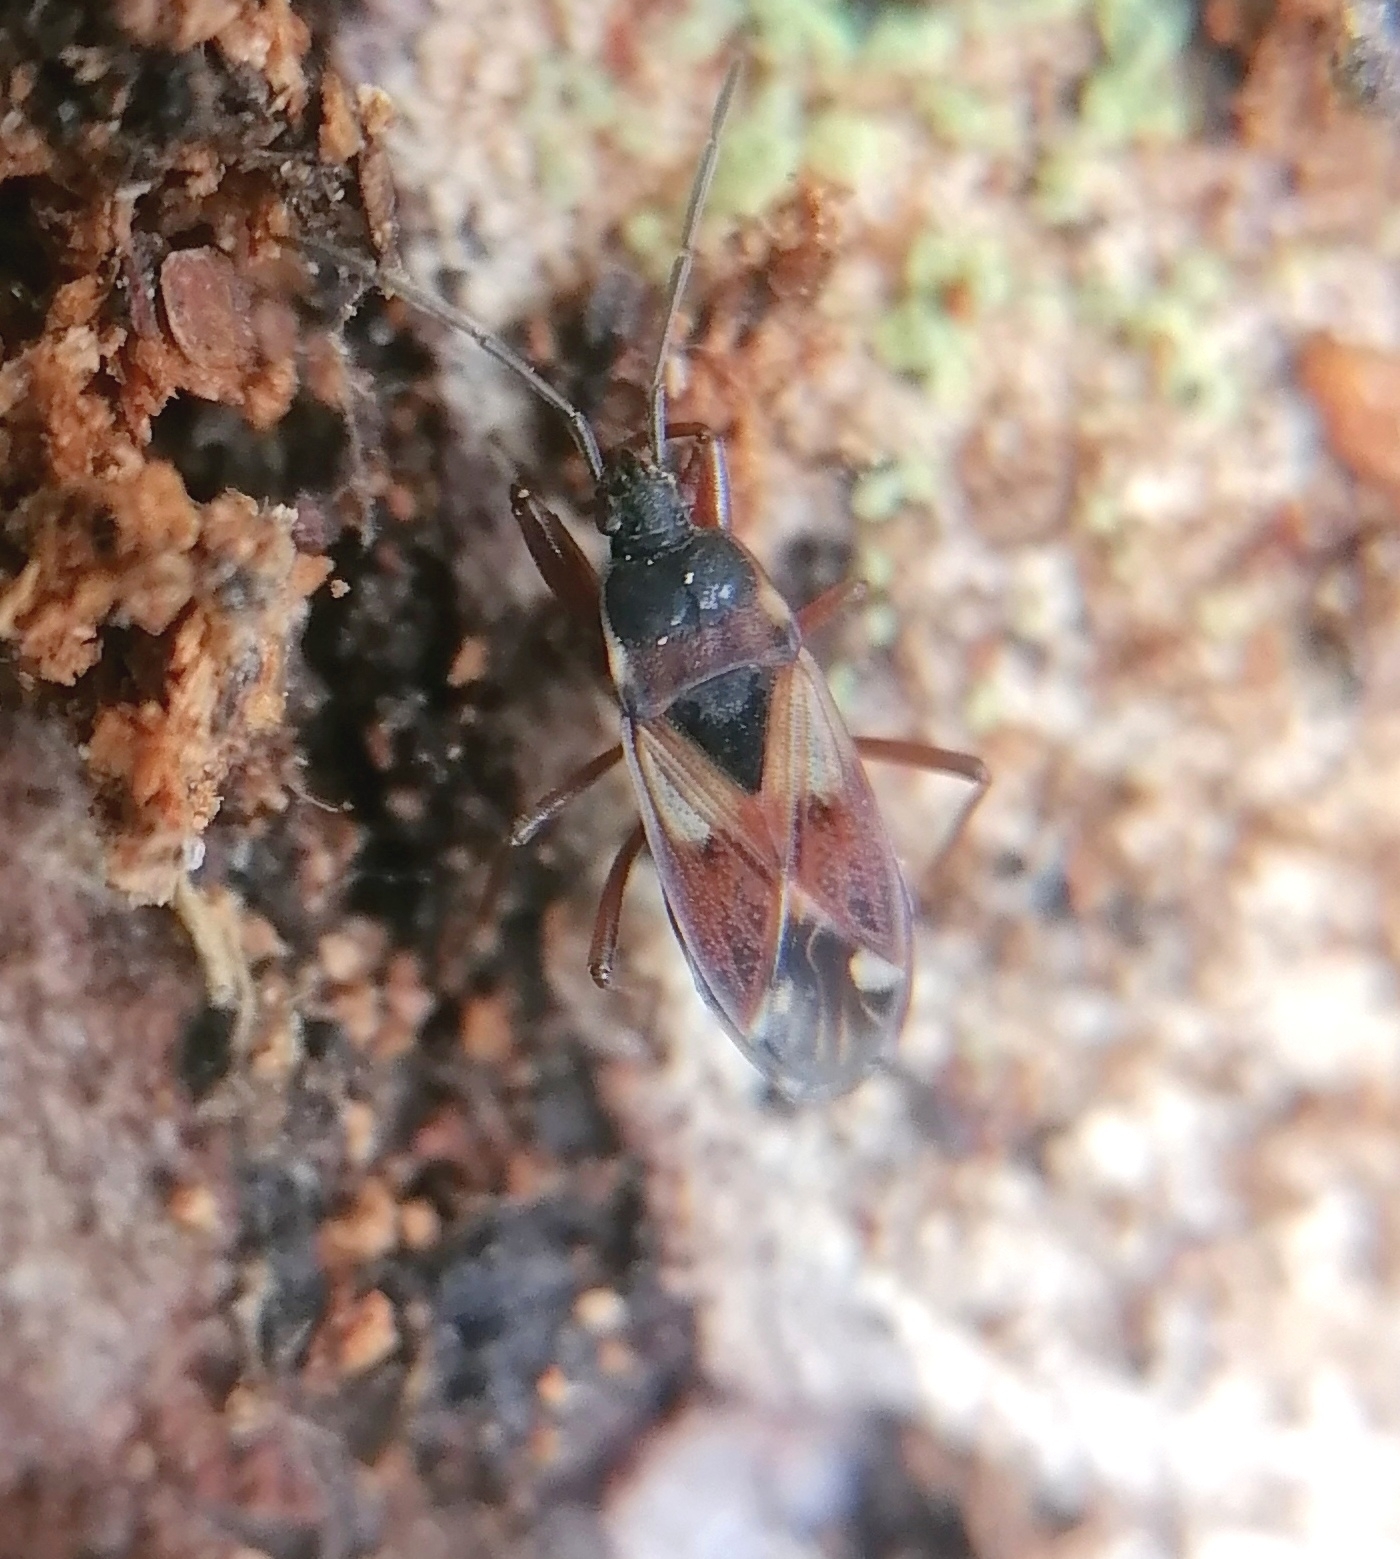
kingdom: Animalia
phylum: Arthropoda
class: Insecta
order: Hemiptera
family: Rhyparochromidae
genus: Eremocoris
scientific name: Eremocoris abietis
